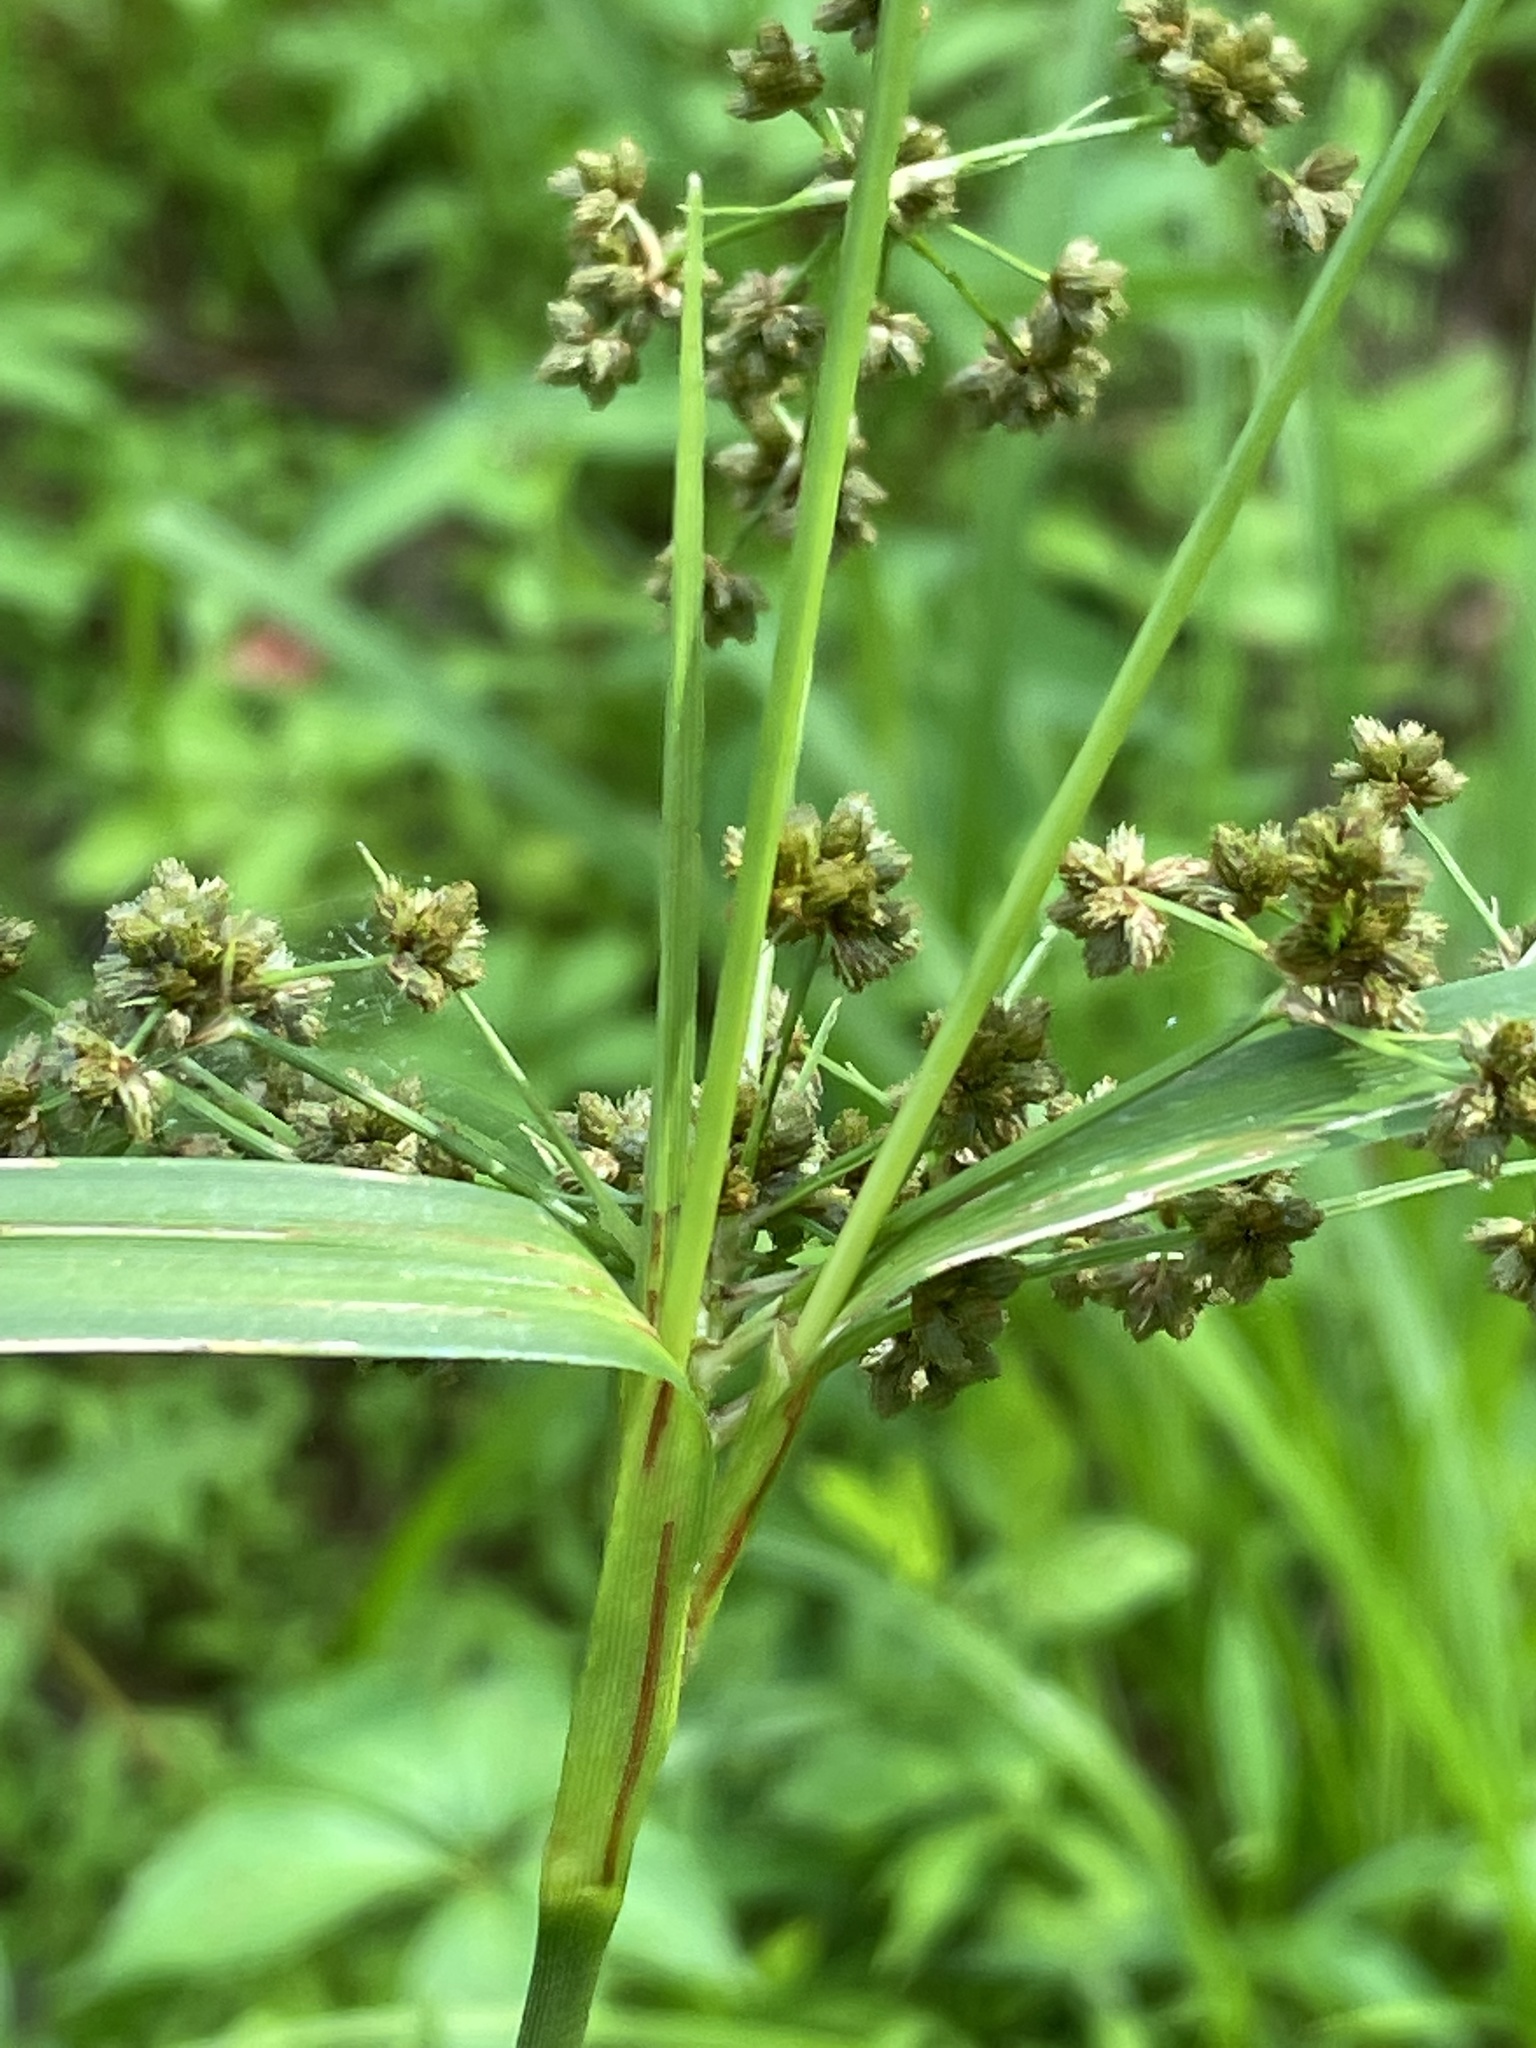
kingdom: Plantae
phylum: Tracheophyta
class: Liliopsida
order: Poales
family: Cyperaceae
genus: Scirpus
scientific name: Scirpus georgianus
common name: Bristleless dark-green bulrush
